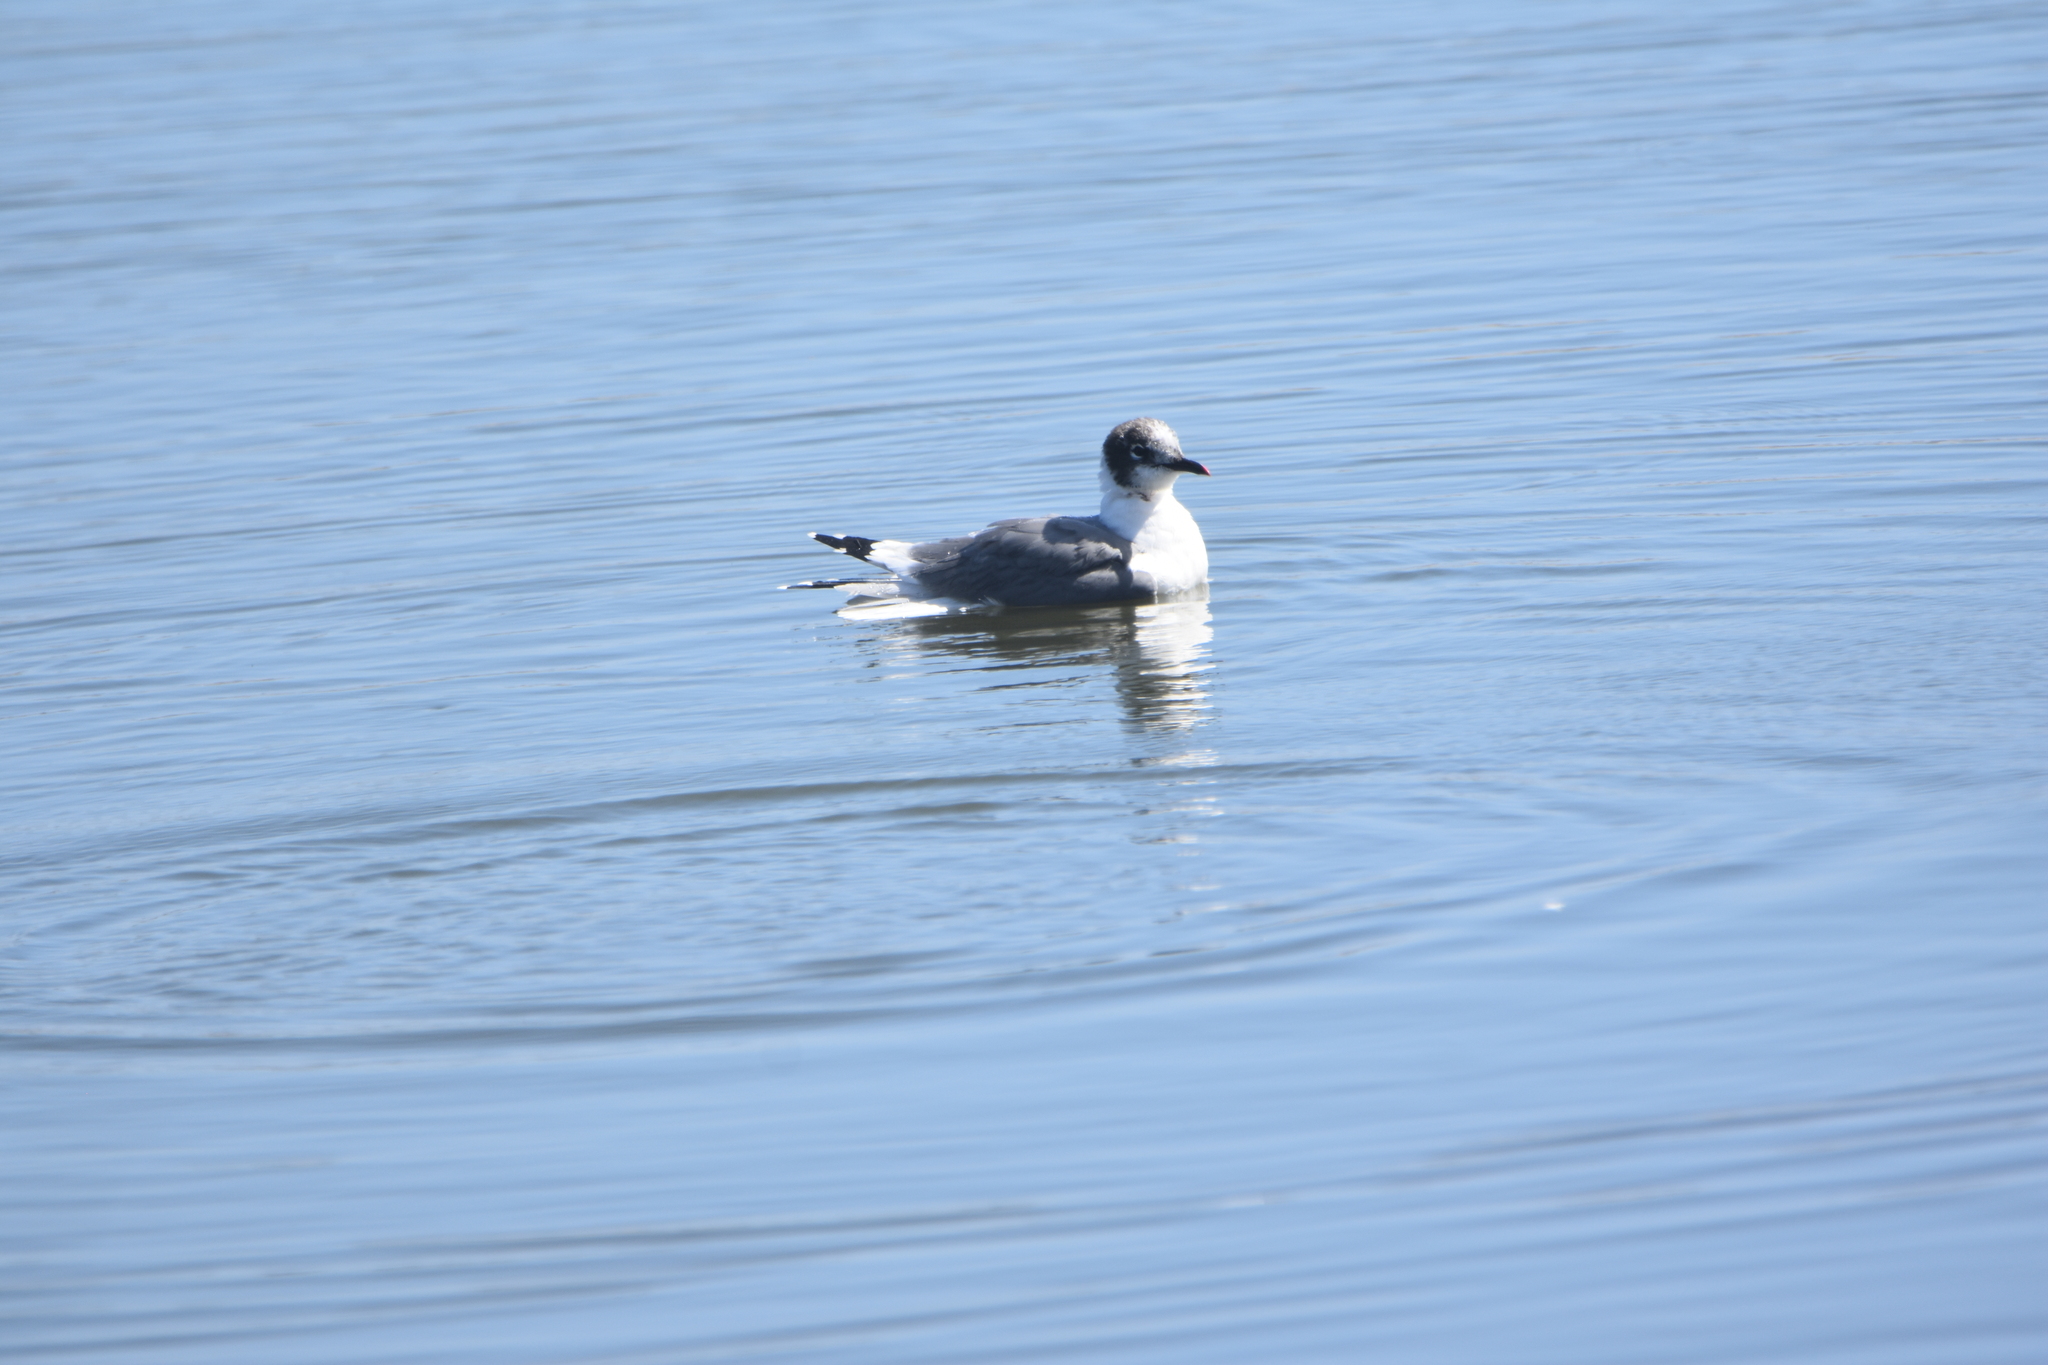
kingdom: Animalia
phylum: Chordata
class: Aves
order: Charadriiformes
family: Laridae
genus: Leucophaeus
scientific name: Leucophaeus pipixcan
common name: Franklin's gull
